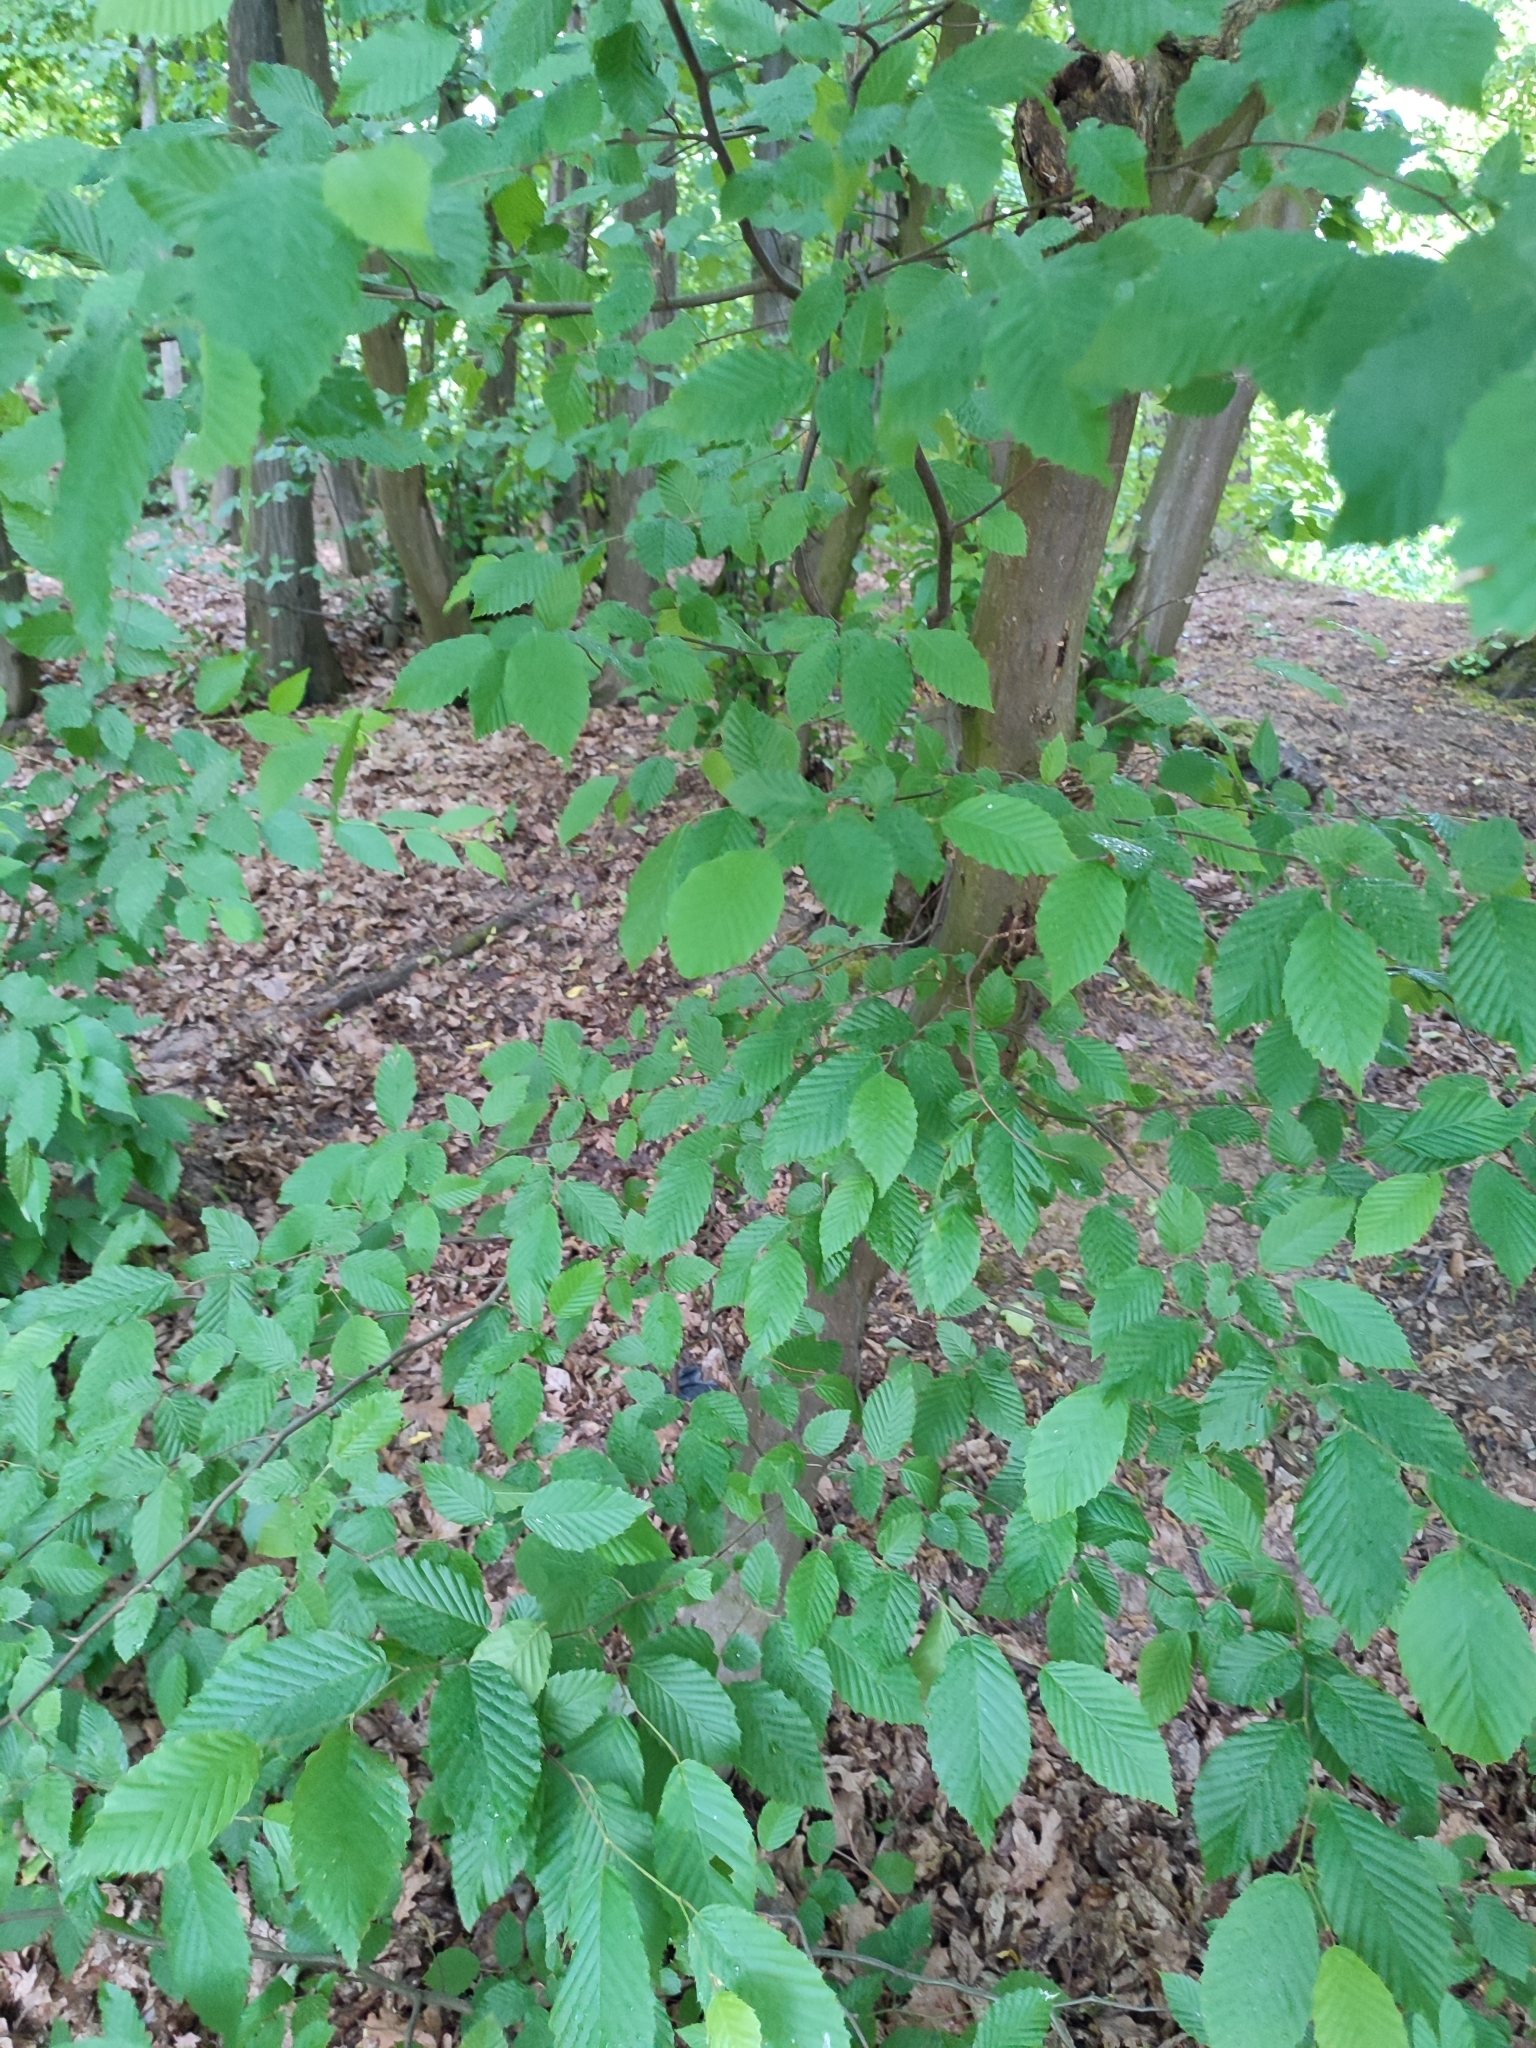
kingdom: Plantae
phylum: Tracheophyta
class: Magnoliopsida
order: Fagales
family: Betulaceae
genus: Carpinus
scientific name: Carpinus betulus
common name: Hornbeam
